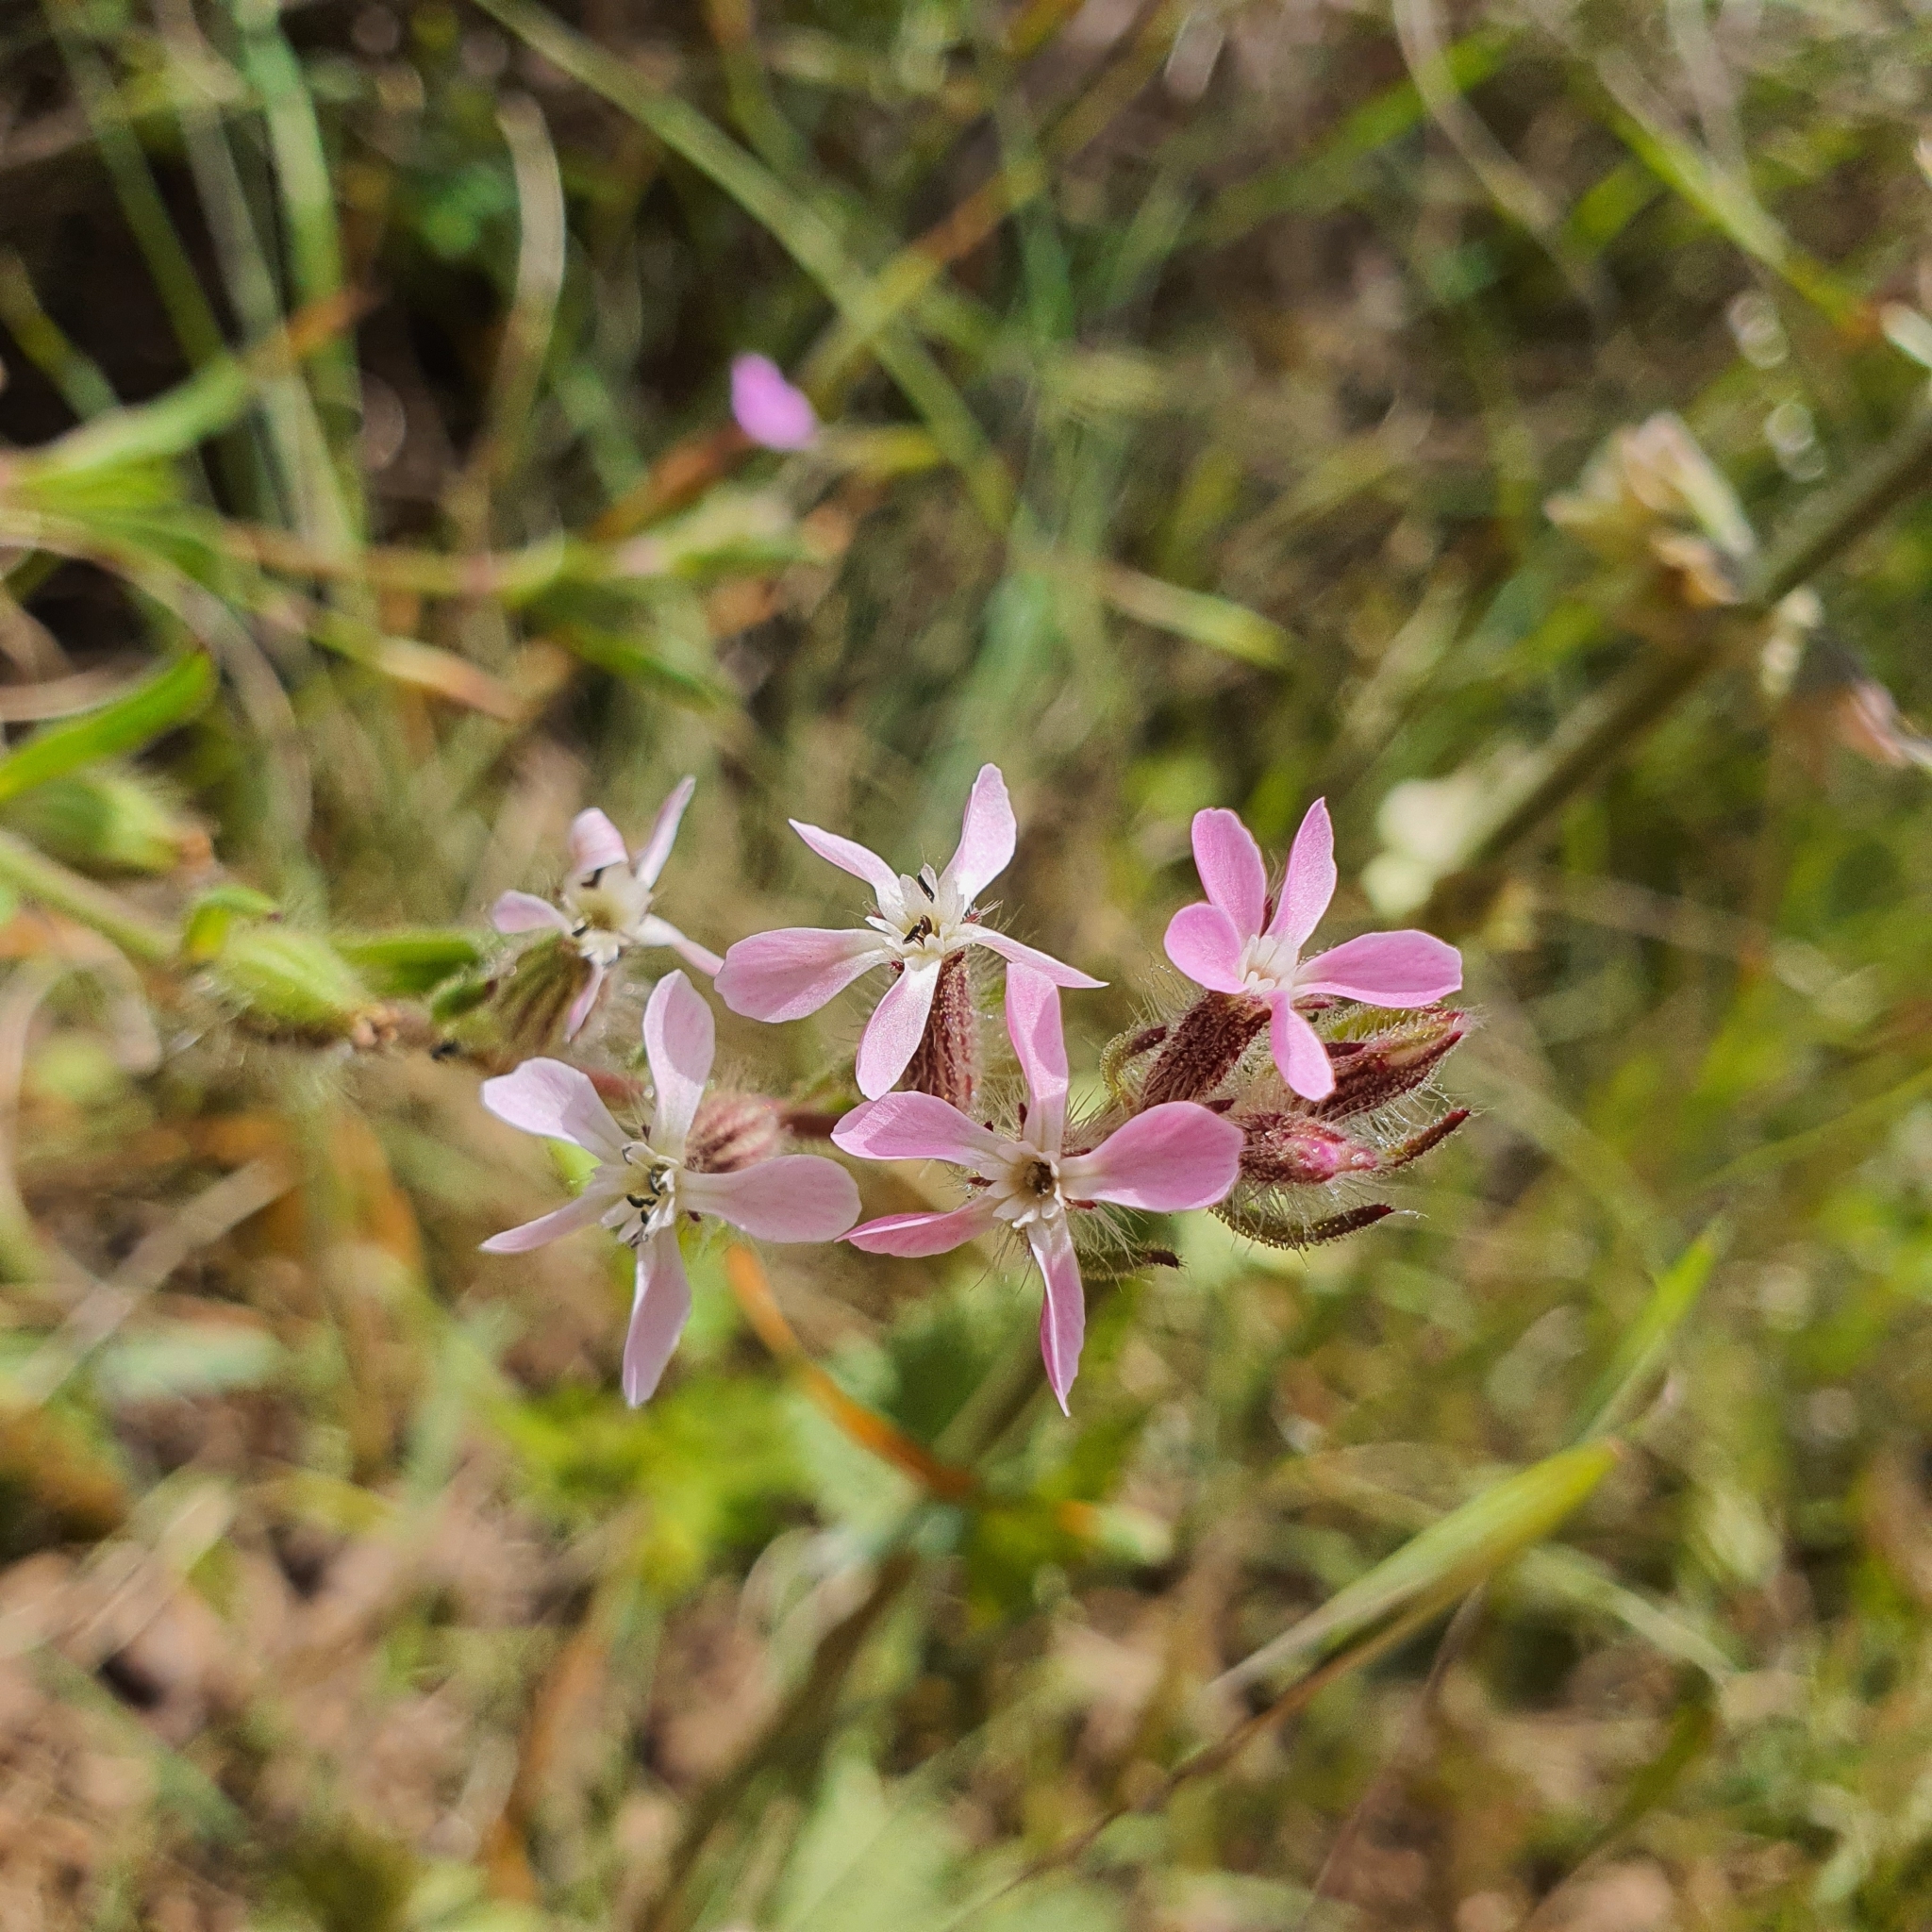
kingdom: Plantae
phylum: Tracheophyta
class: Magnoliopsida
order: Caryophyllales
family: Caryophyllaceae
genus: Silene
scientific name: Silene gallica
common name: Small-flowered catchfly
